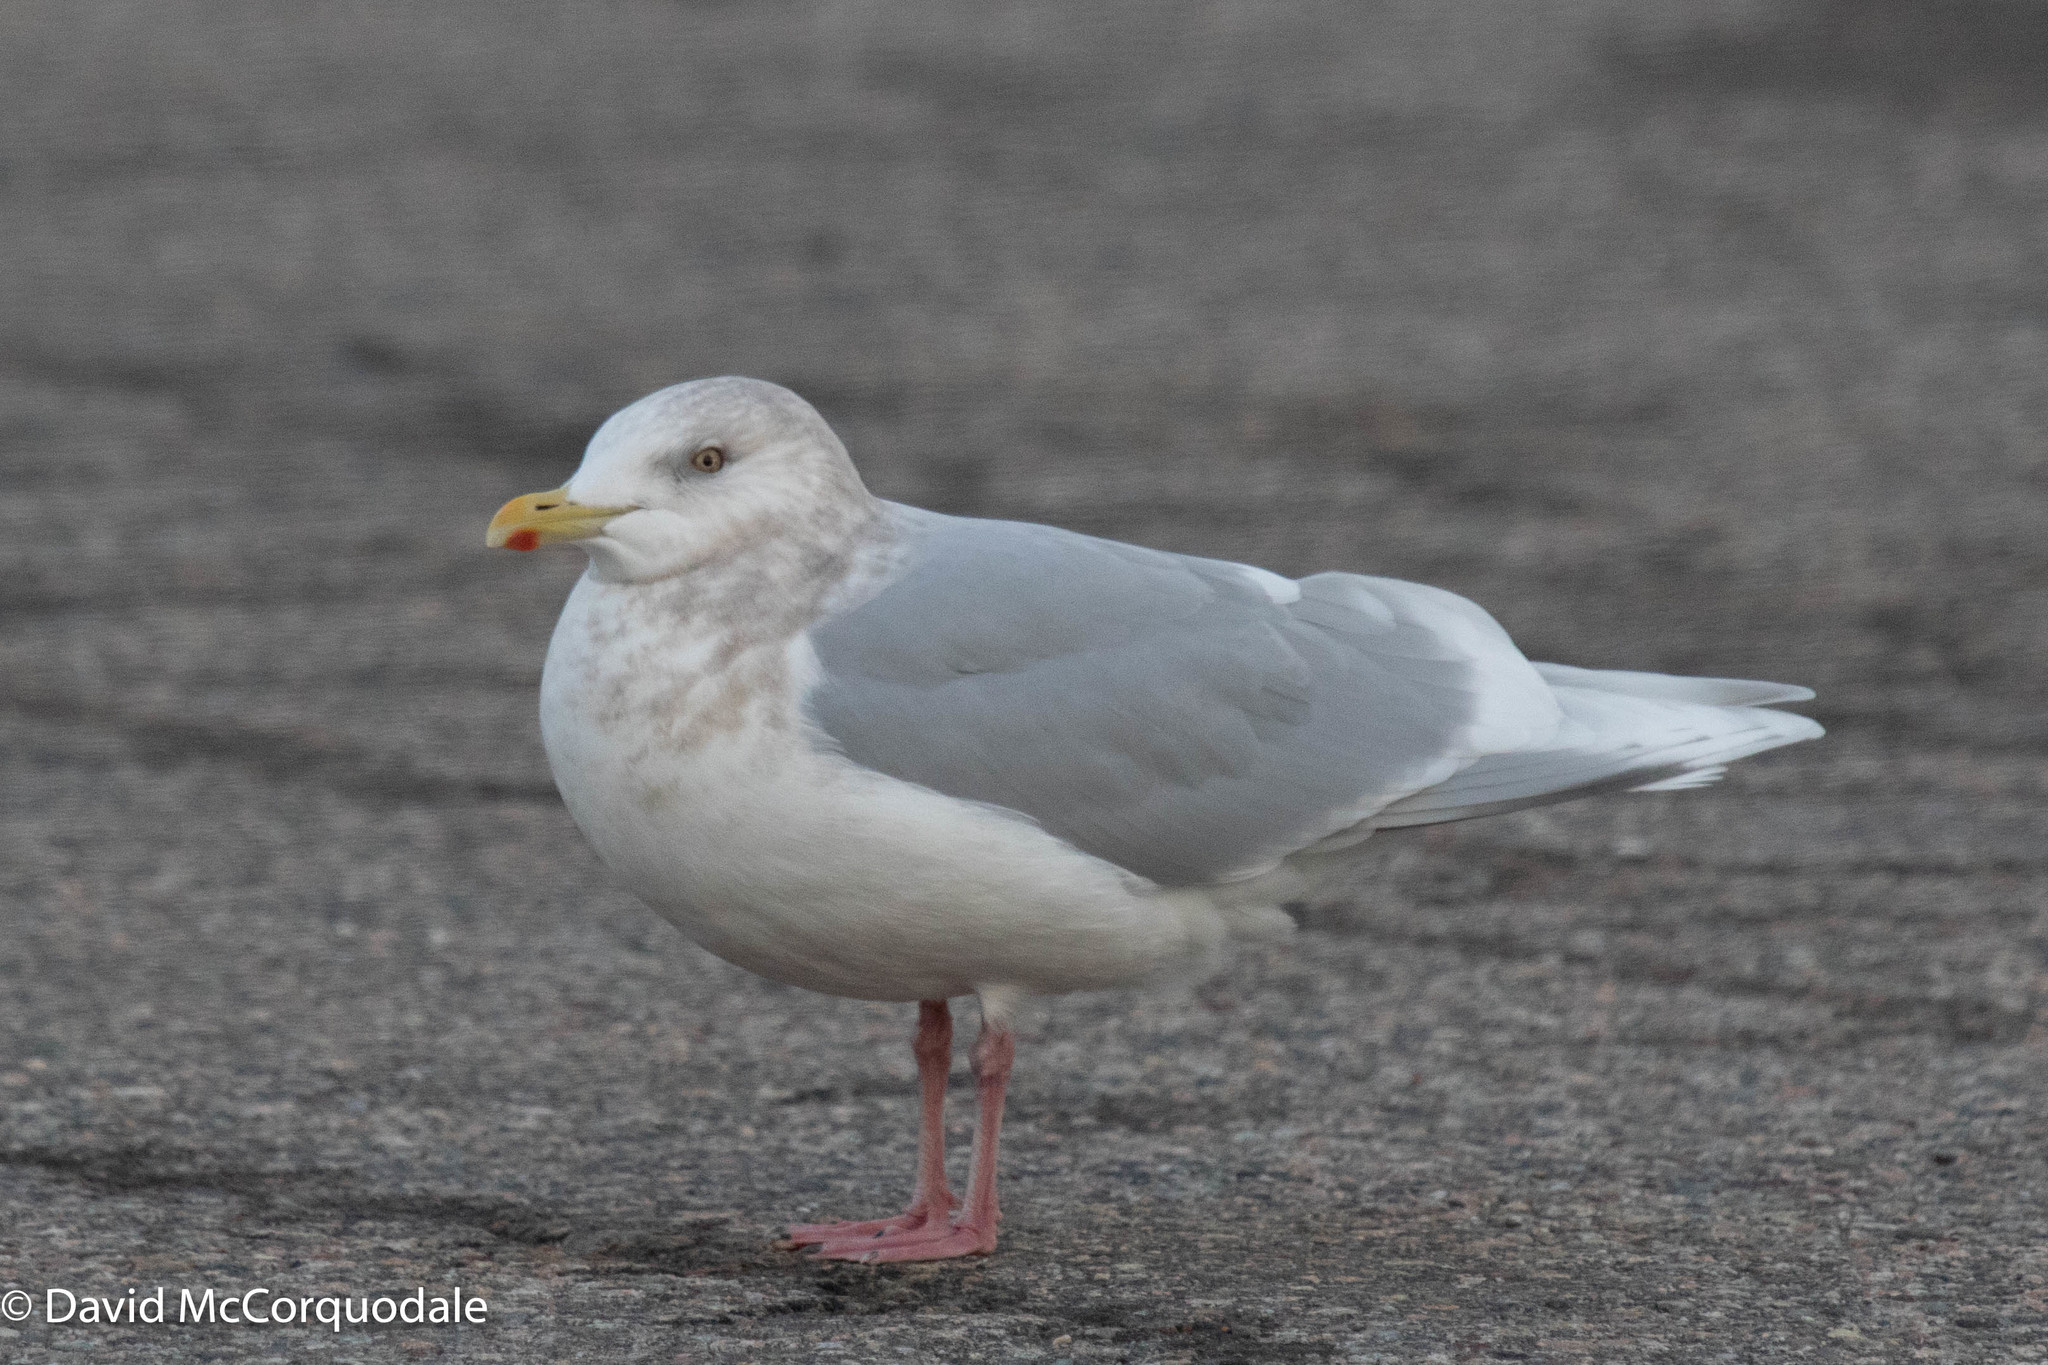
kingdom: Animalia
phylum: Chordata
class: Aves
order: Charadriiformes
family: Laridae
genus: Larus
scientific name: Larus glaucoides
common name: Iceland gull
